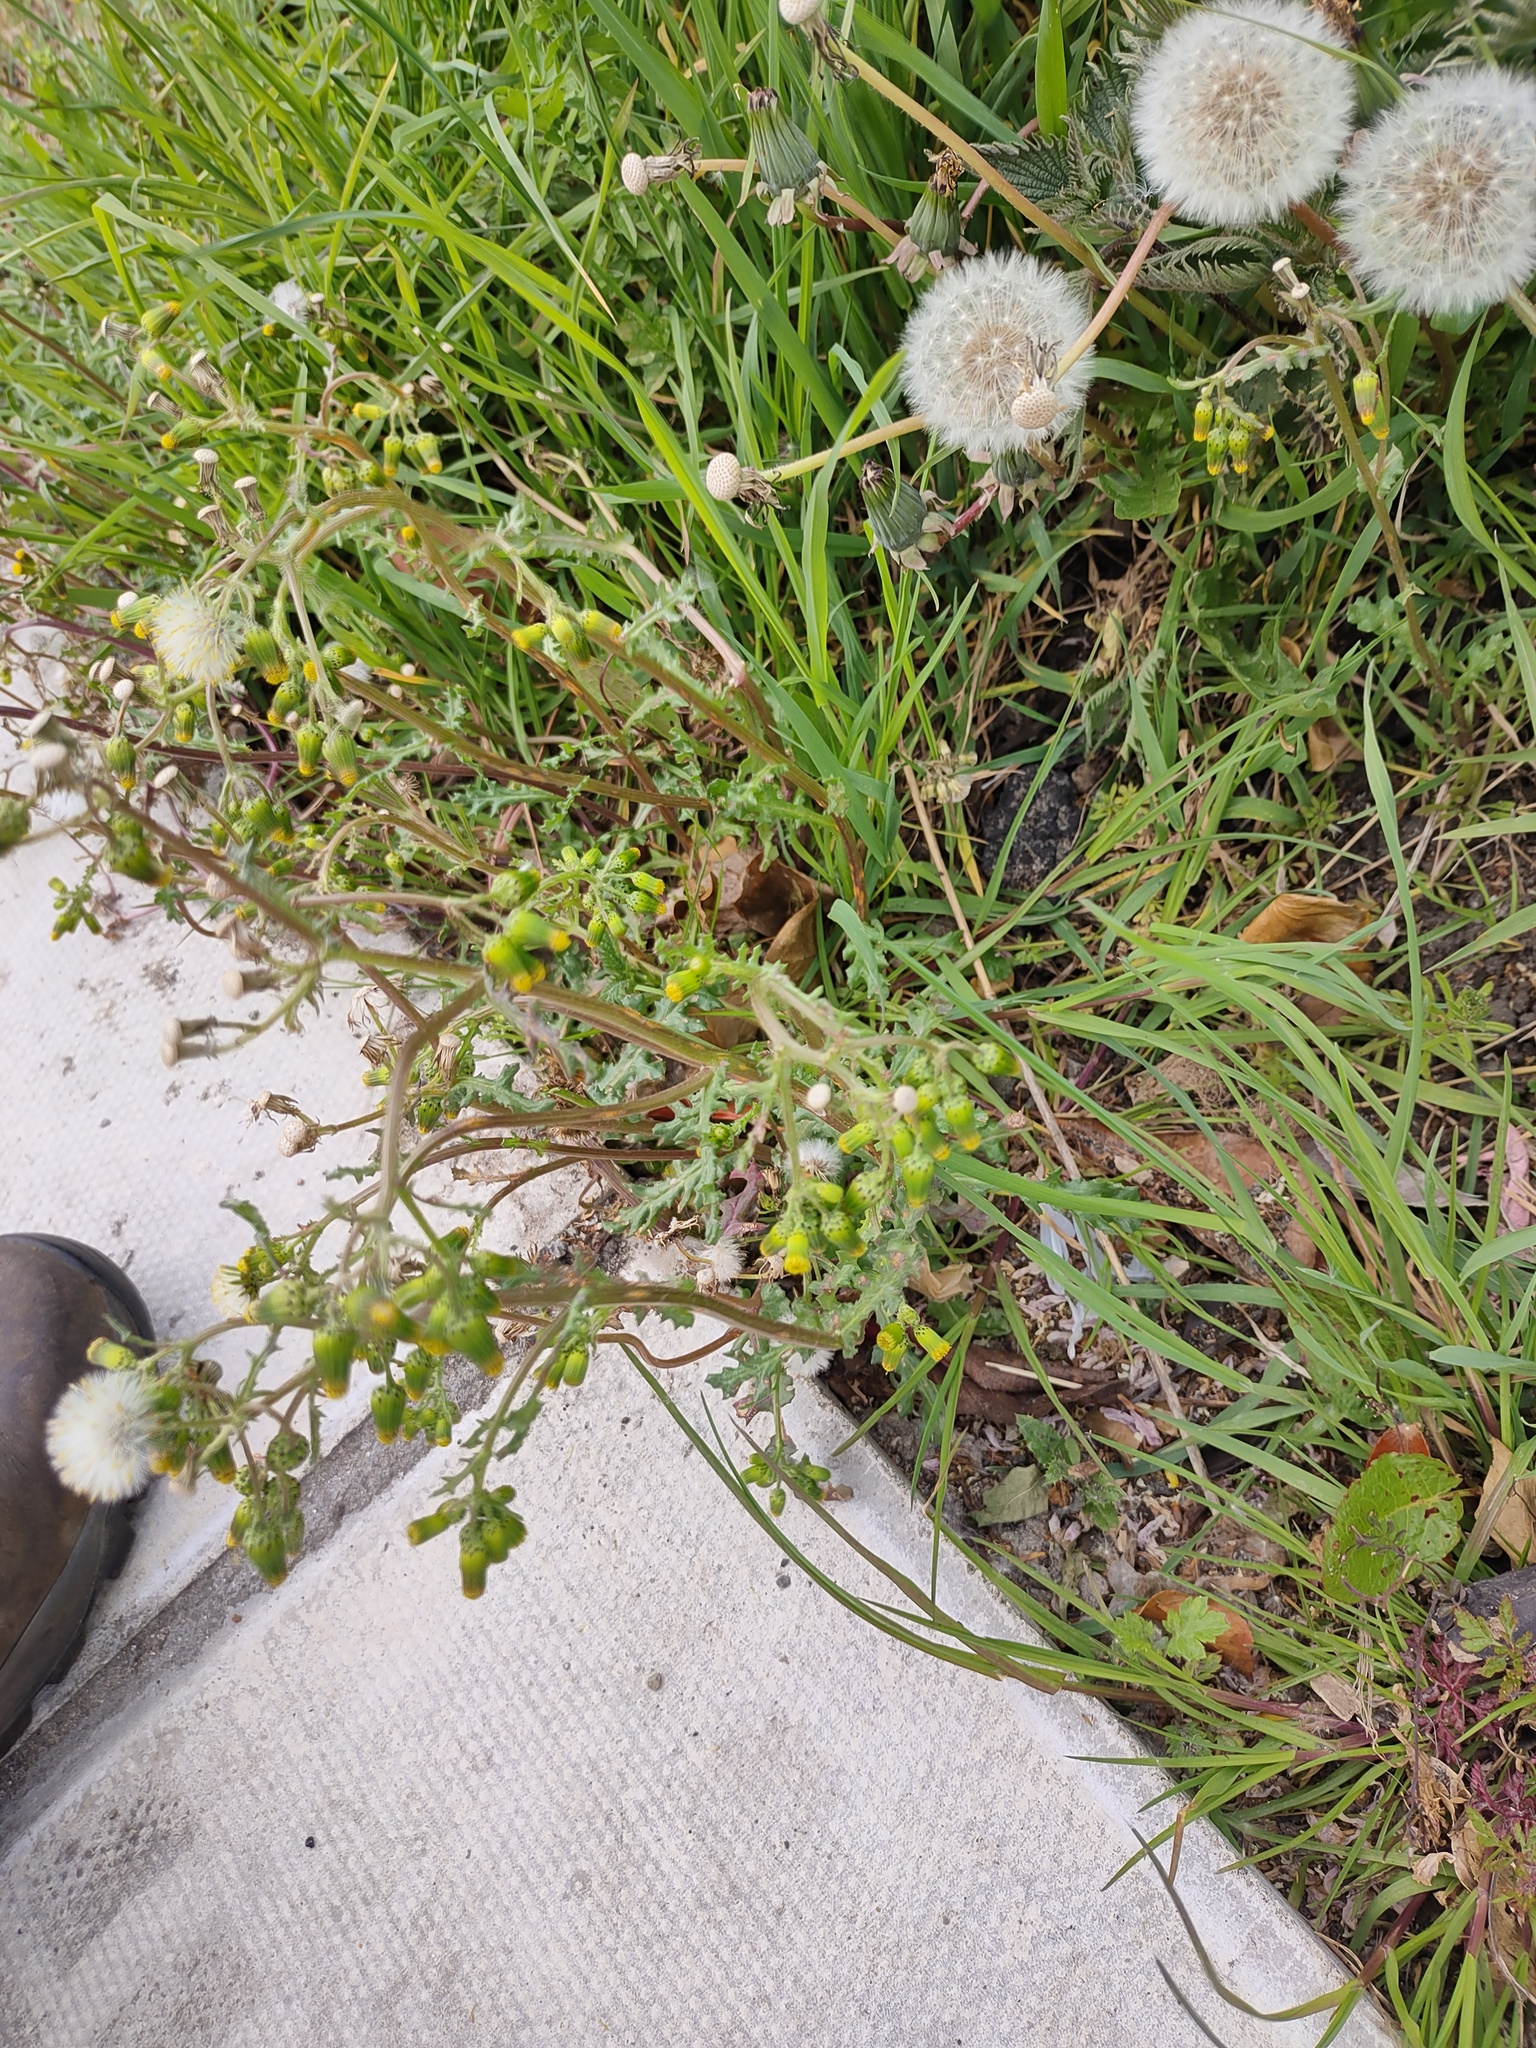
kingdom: Plantae
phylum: Tracheophyta
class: Magnoliopsida
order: Asterales
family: Asteraceae
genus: Senecio
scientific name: Senecio vulgaris
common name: Old-man-in-the-spring
